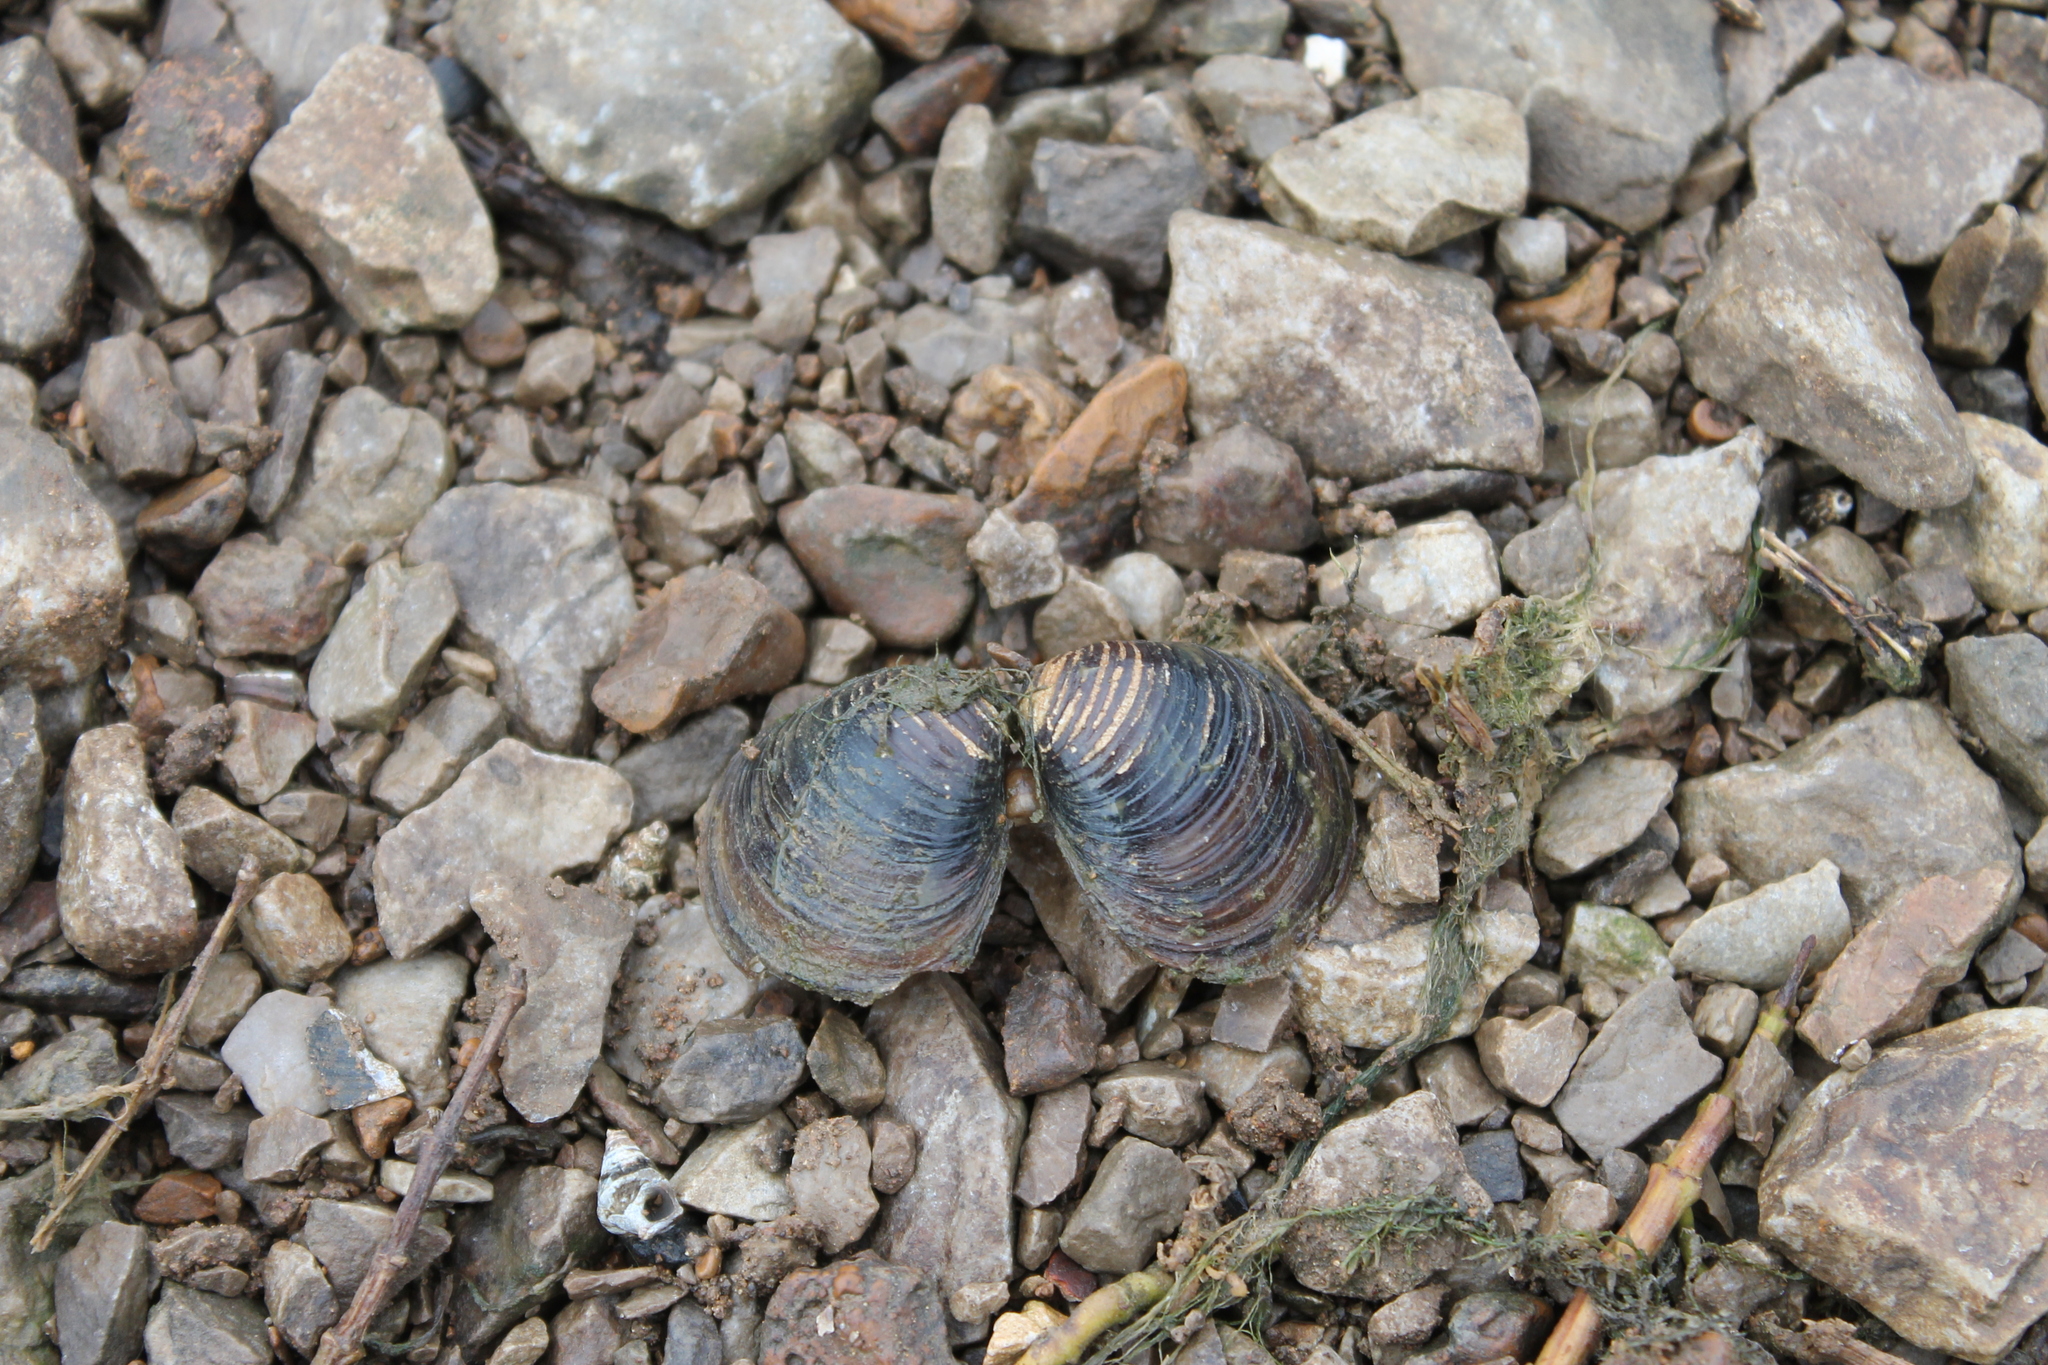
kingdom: Animalia
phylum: Mollusca
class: Bivalvia
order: Venerida
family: Cyrenidae
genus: Corbicula
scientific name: Corbicula fluminea
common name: Asian clam
